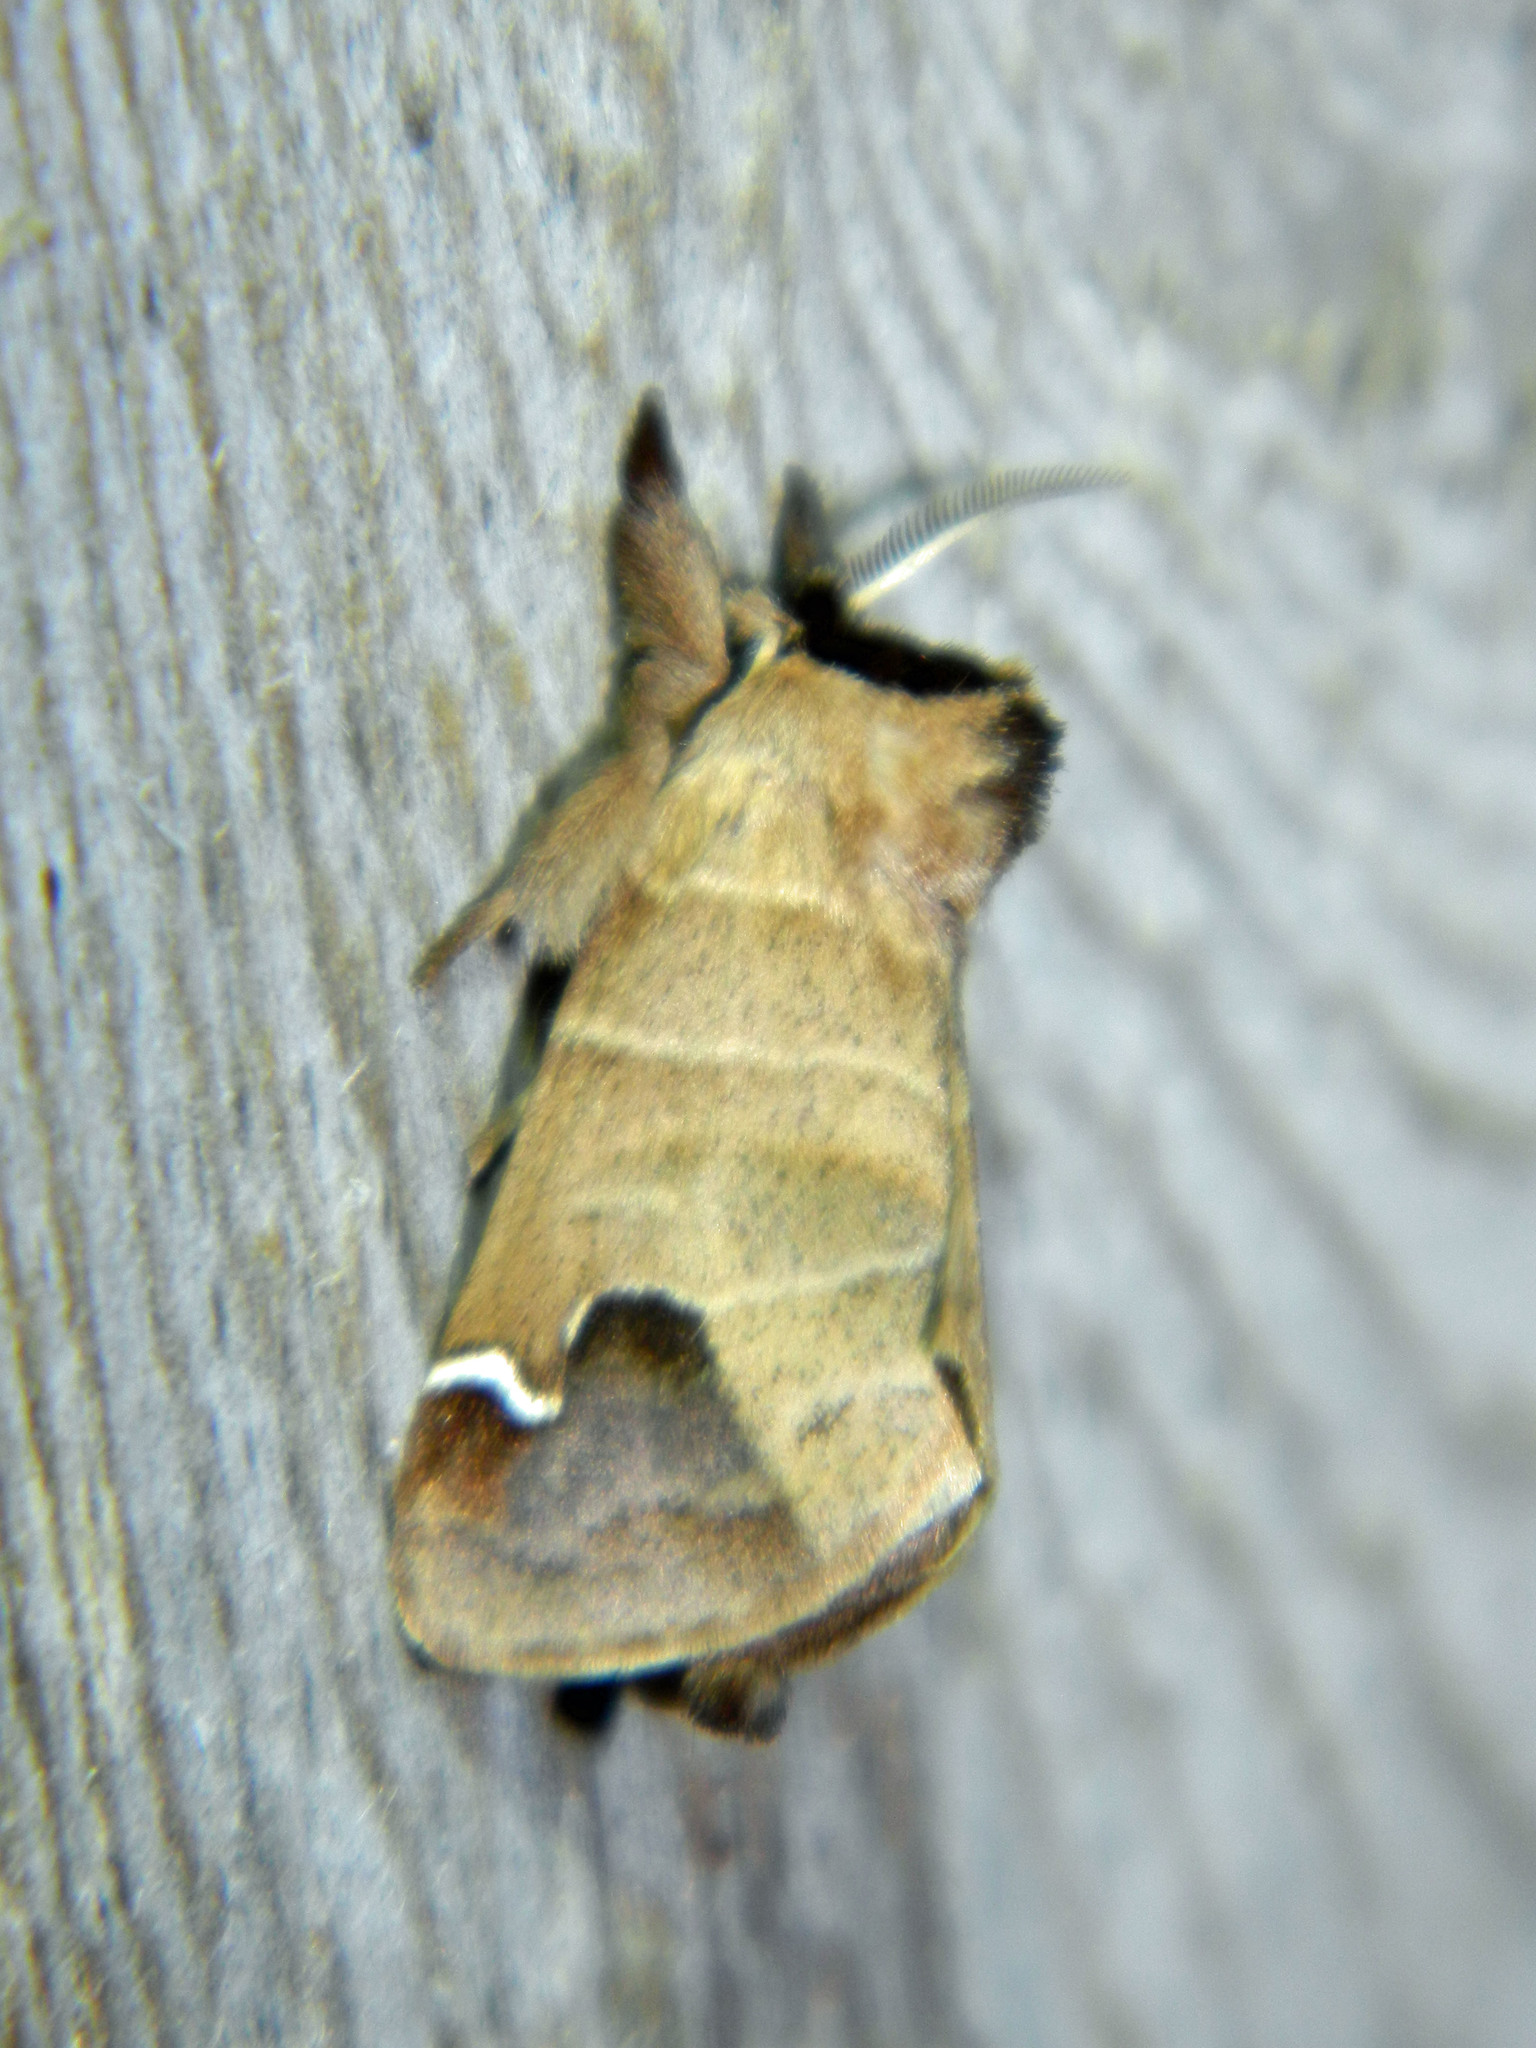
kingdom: Animalia
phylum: Arthropoda
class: Insecta
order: Lepidoptera
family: Notodontidae
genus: Clostera
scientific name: Clostera albosigma
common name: Sigmoid prominent
